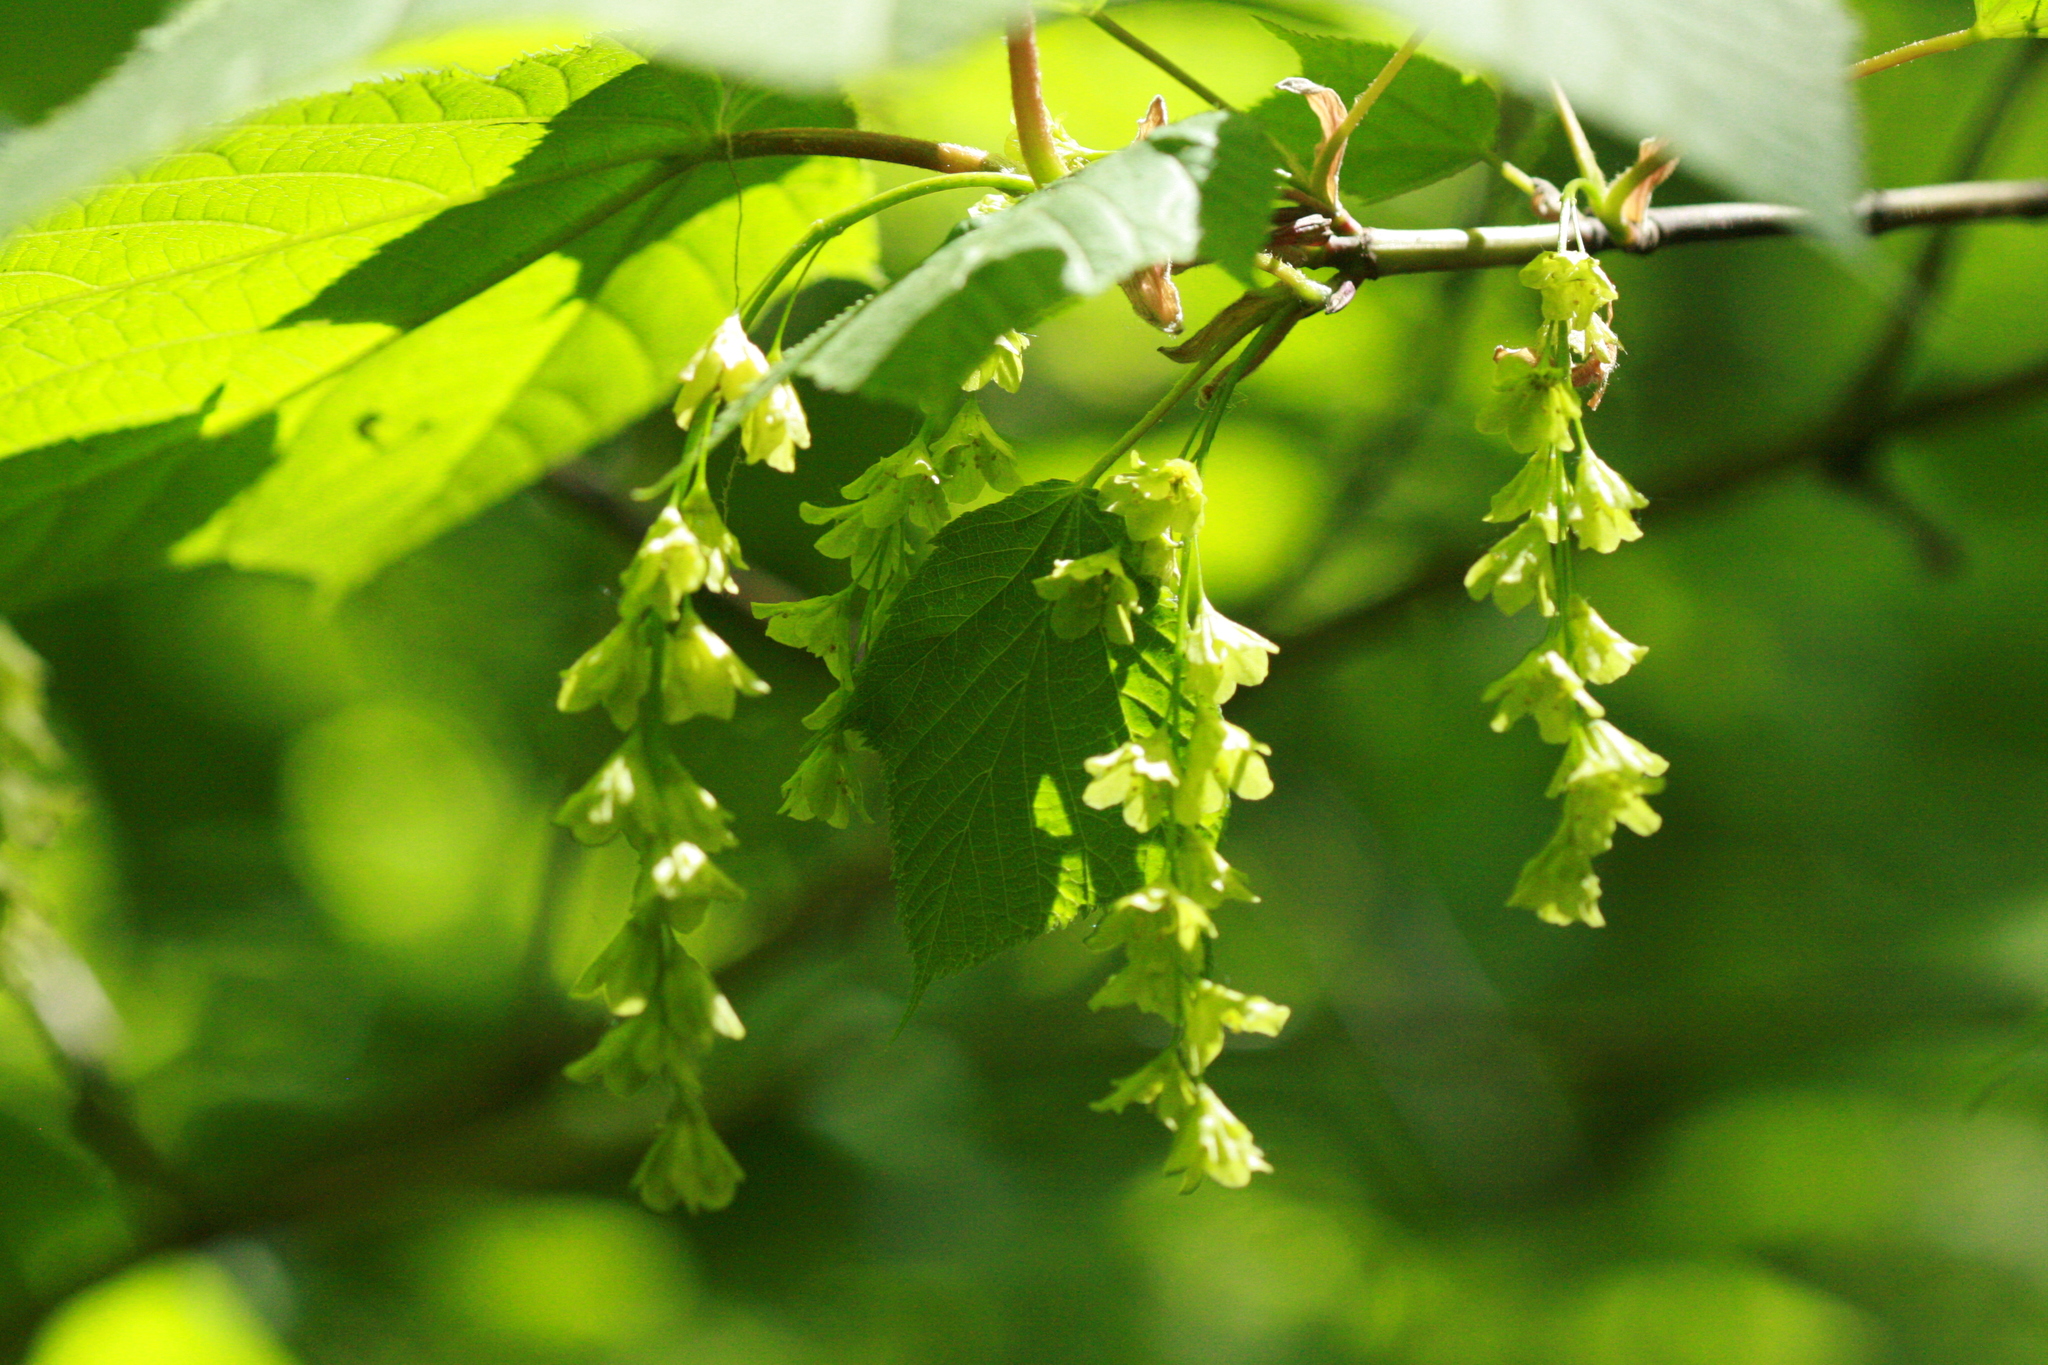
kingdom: Plantae
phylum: Tracheophyta
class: Magnoliopsida
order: Sapindales
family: Sapindaceae
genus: Acer
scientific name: Acer pensylvanicum
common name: Moosewood
